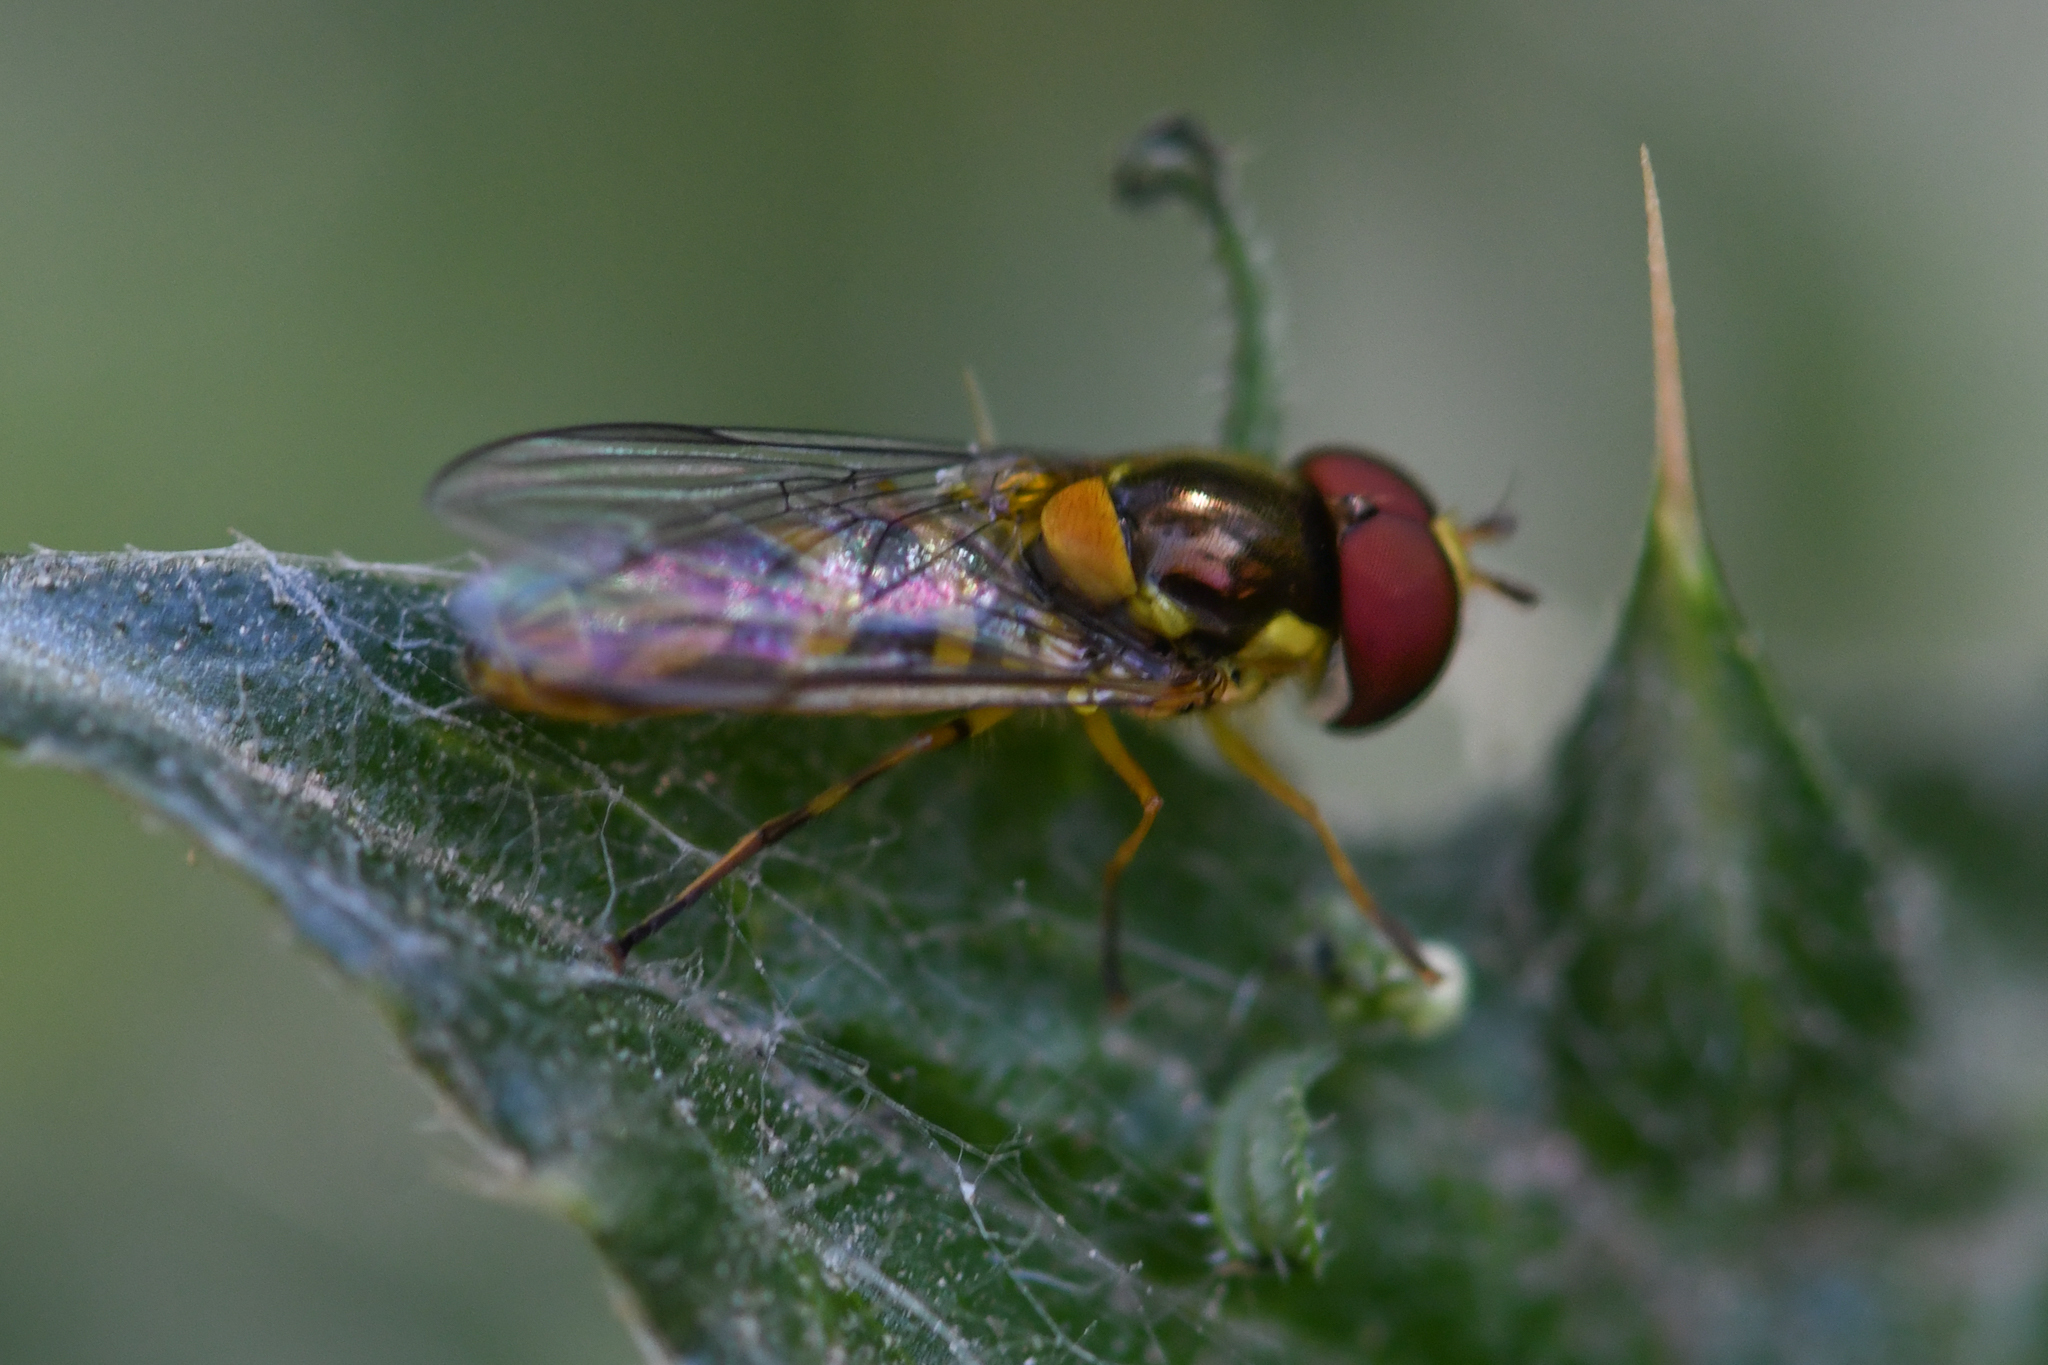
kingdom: Animalia
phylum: Arthropoda
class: Insecta
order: Diptera
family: Syrphidae
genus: Allograpta
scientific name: Allograpta obliqua
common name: Common oblique syrphid
